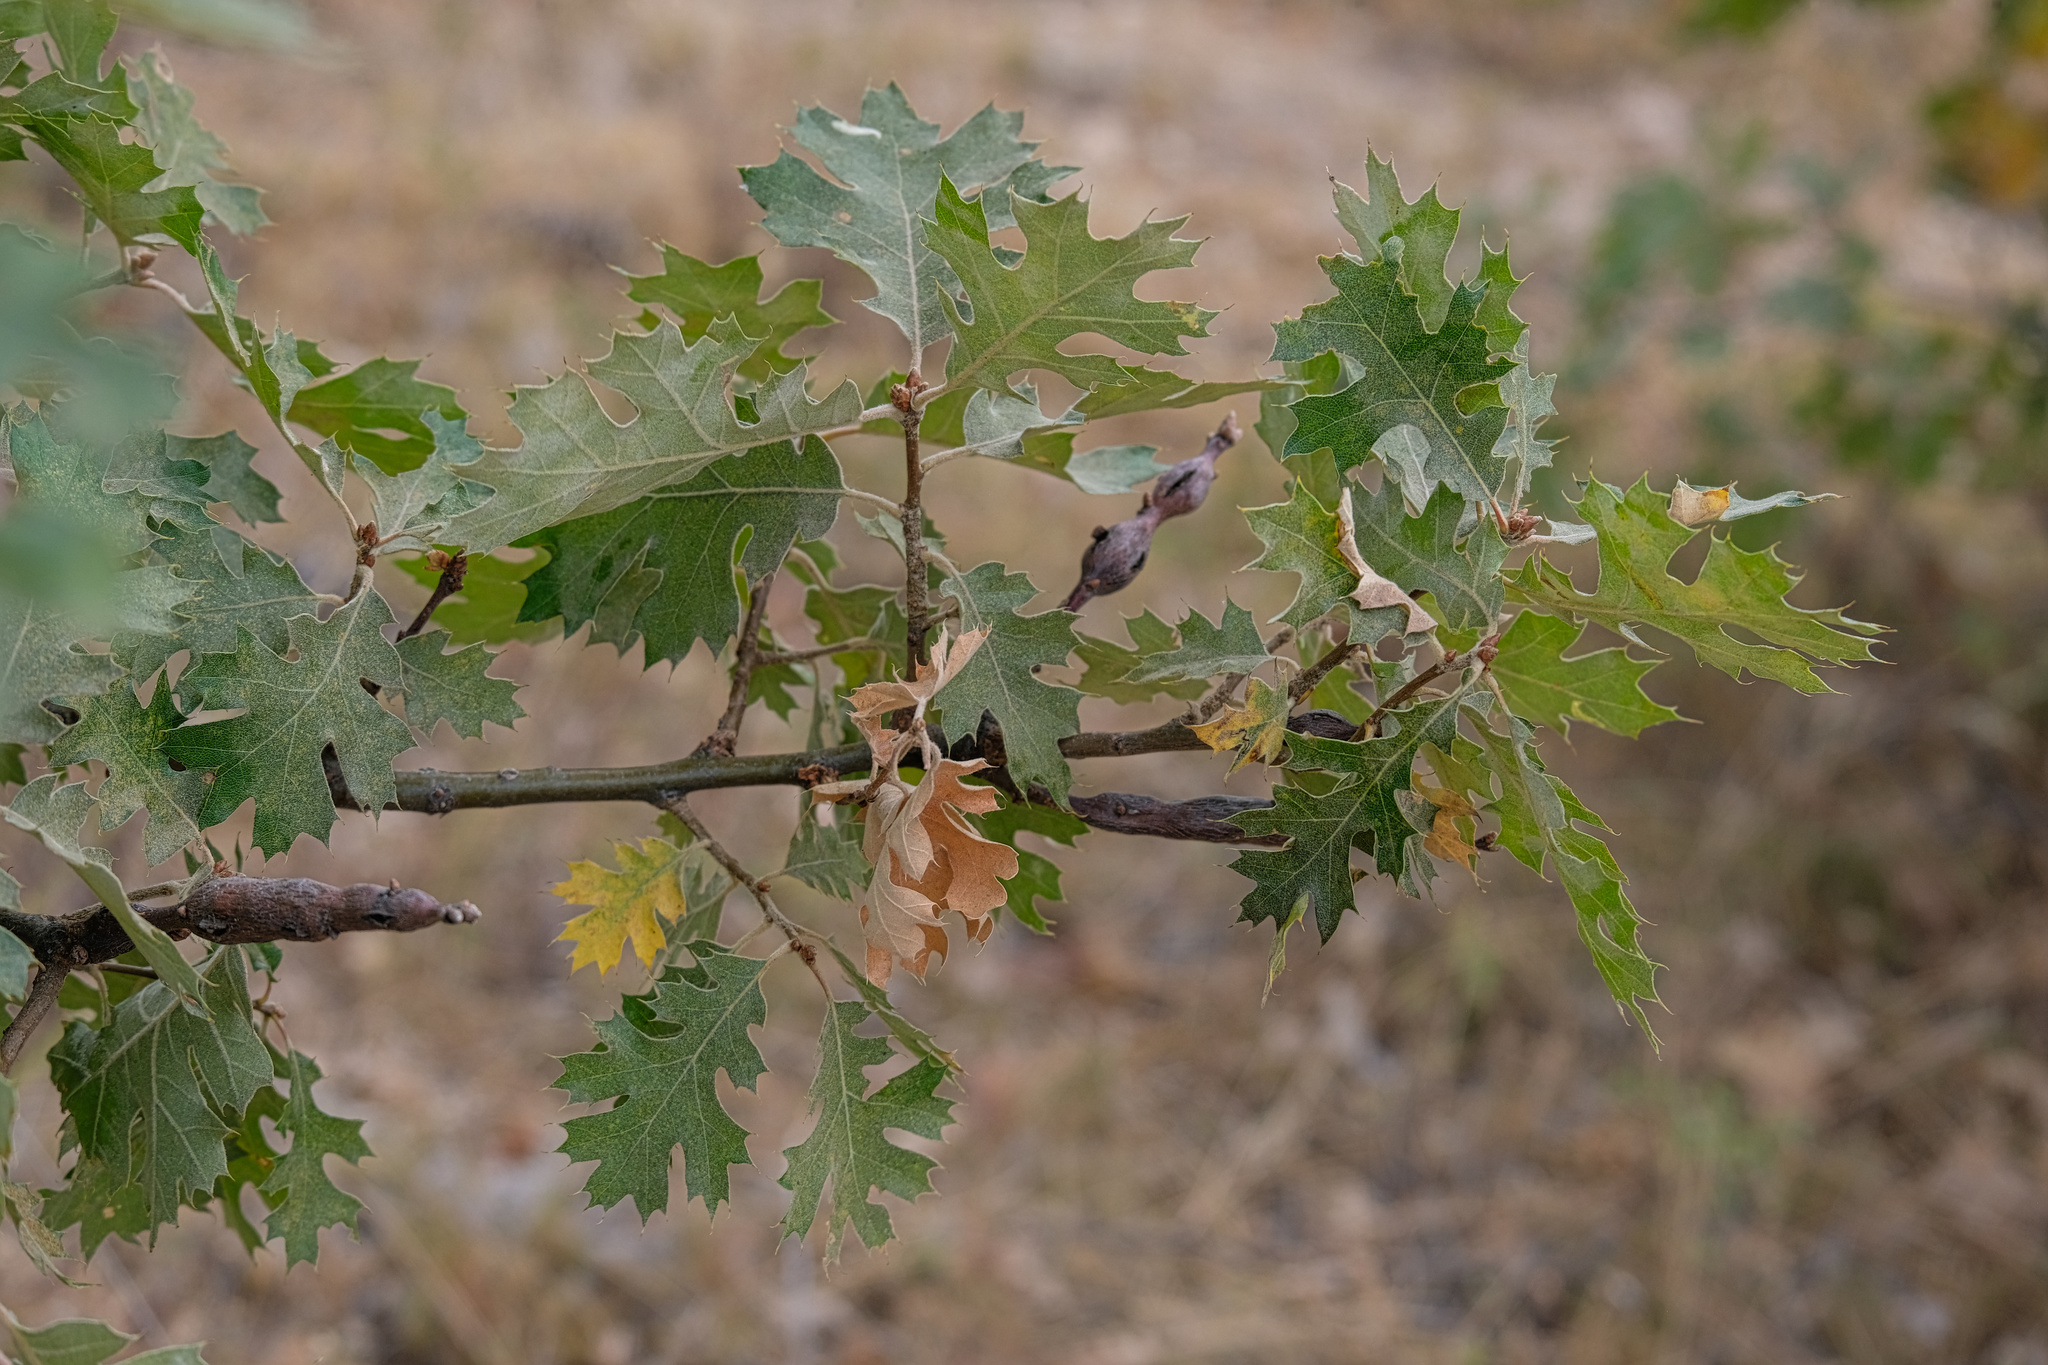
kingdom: Animalia
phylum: Arthropoda
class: Insecta
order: Hymenoptera
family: Cynipidae
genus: Callirhytis
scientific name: Callirhytis
